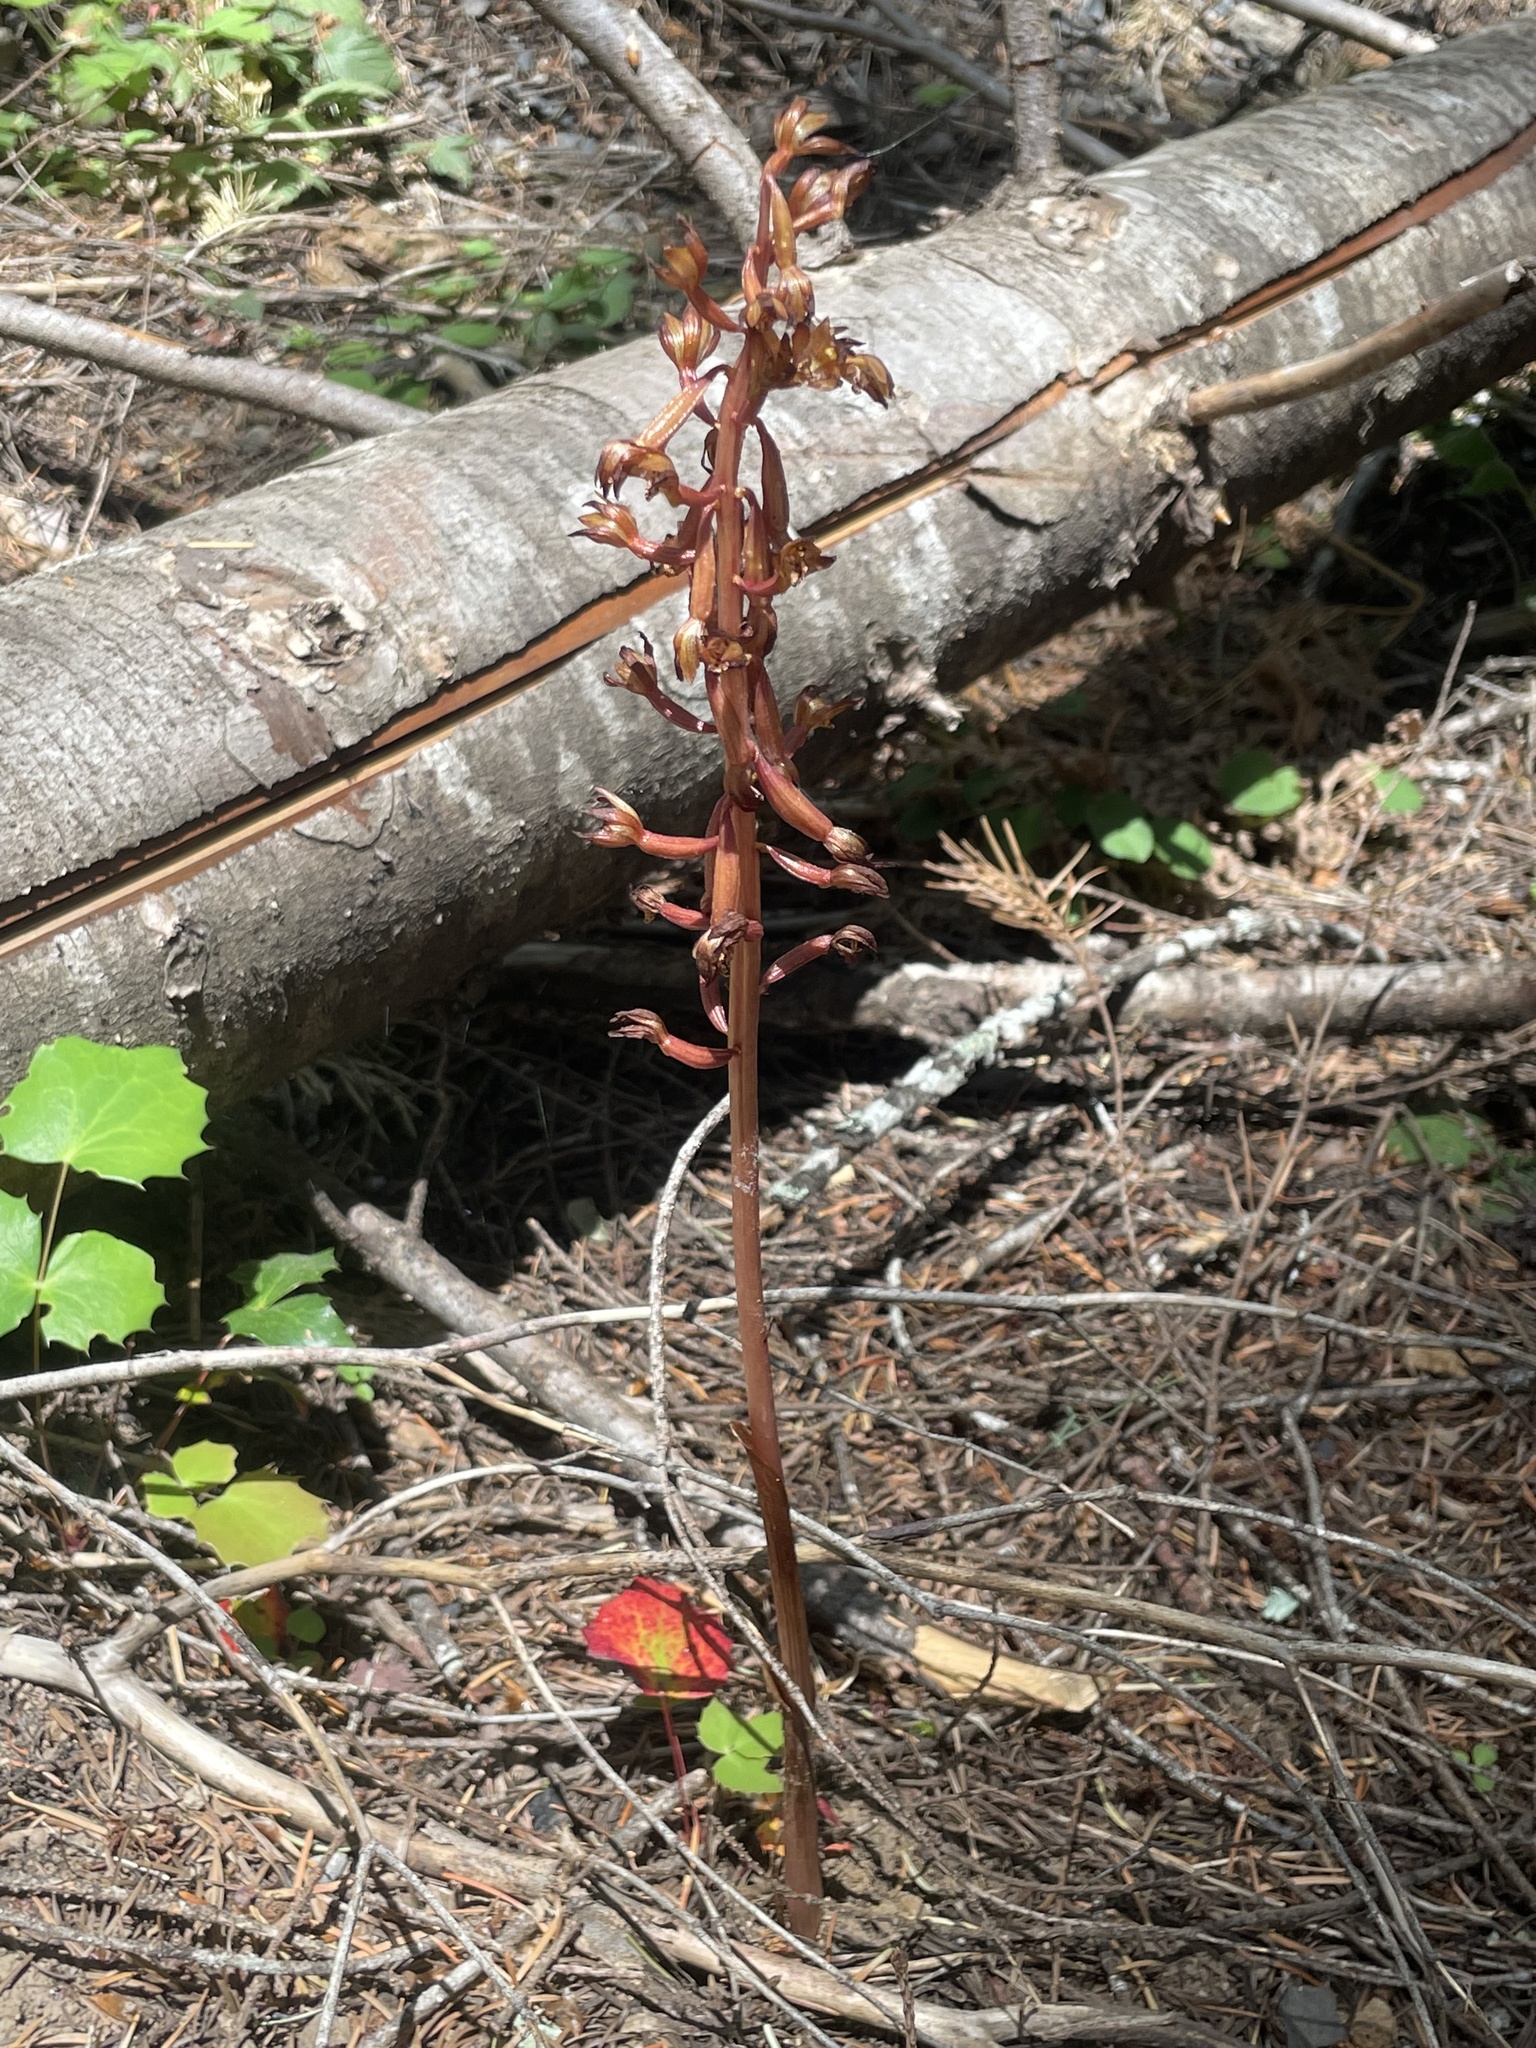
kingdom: Plantae
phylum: Tracheophyta
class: Liliopsida
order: Asparagales
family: Orchidaceae
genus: Corallorhiza
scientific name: Corallorhiza maculata
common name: Spotted coralroot
